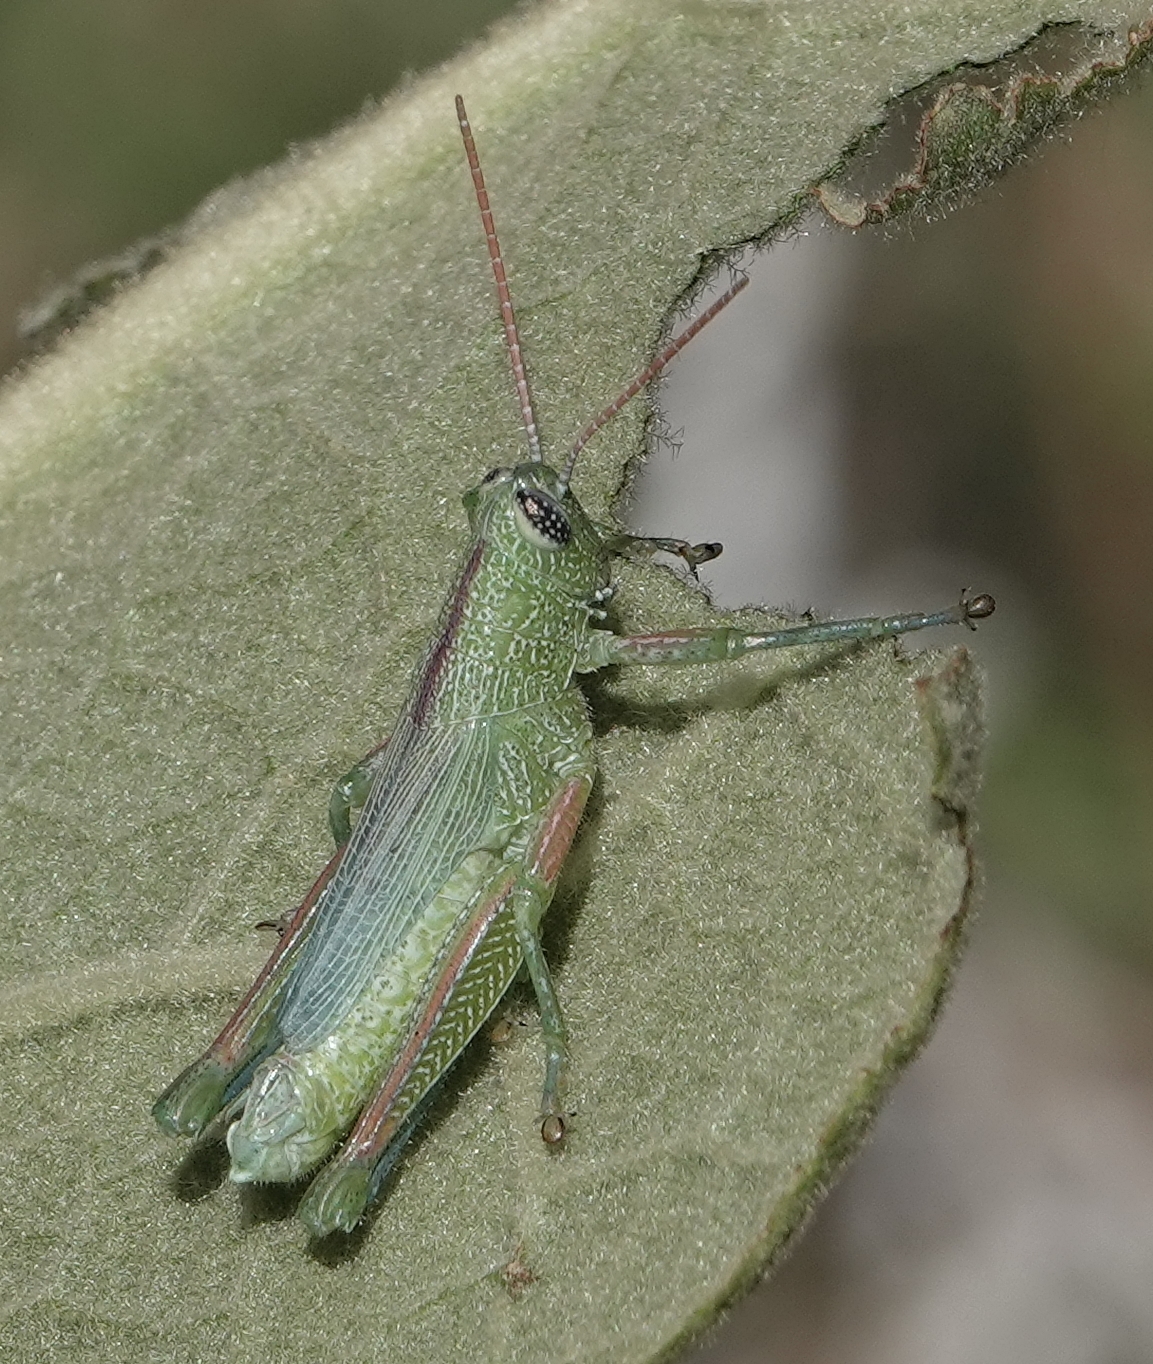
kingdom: Animalia
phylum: Arthropoda
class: Insecta
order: Orthoptera
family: Acrididae
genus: Hesperotettix
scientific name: Hesperotettix speciosus
